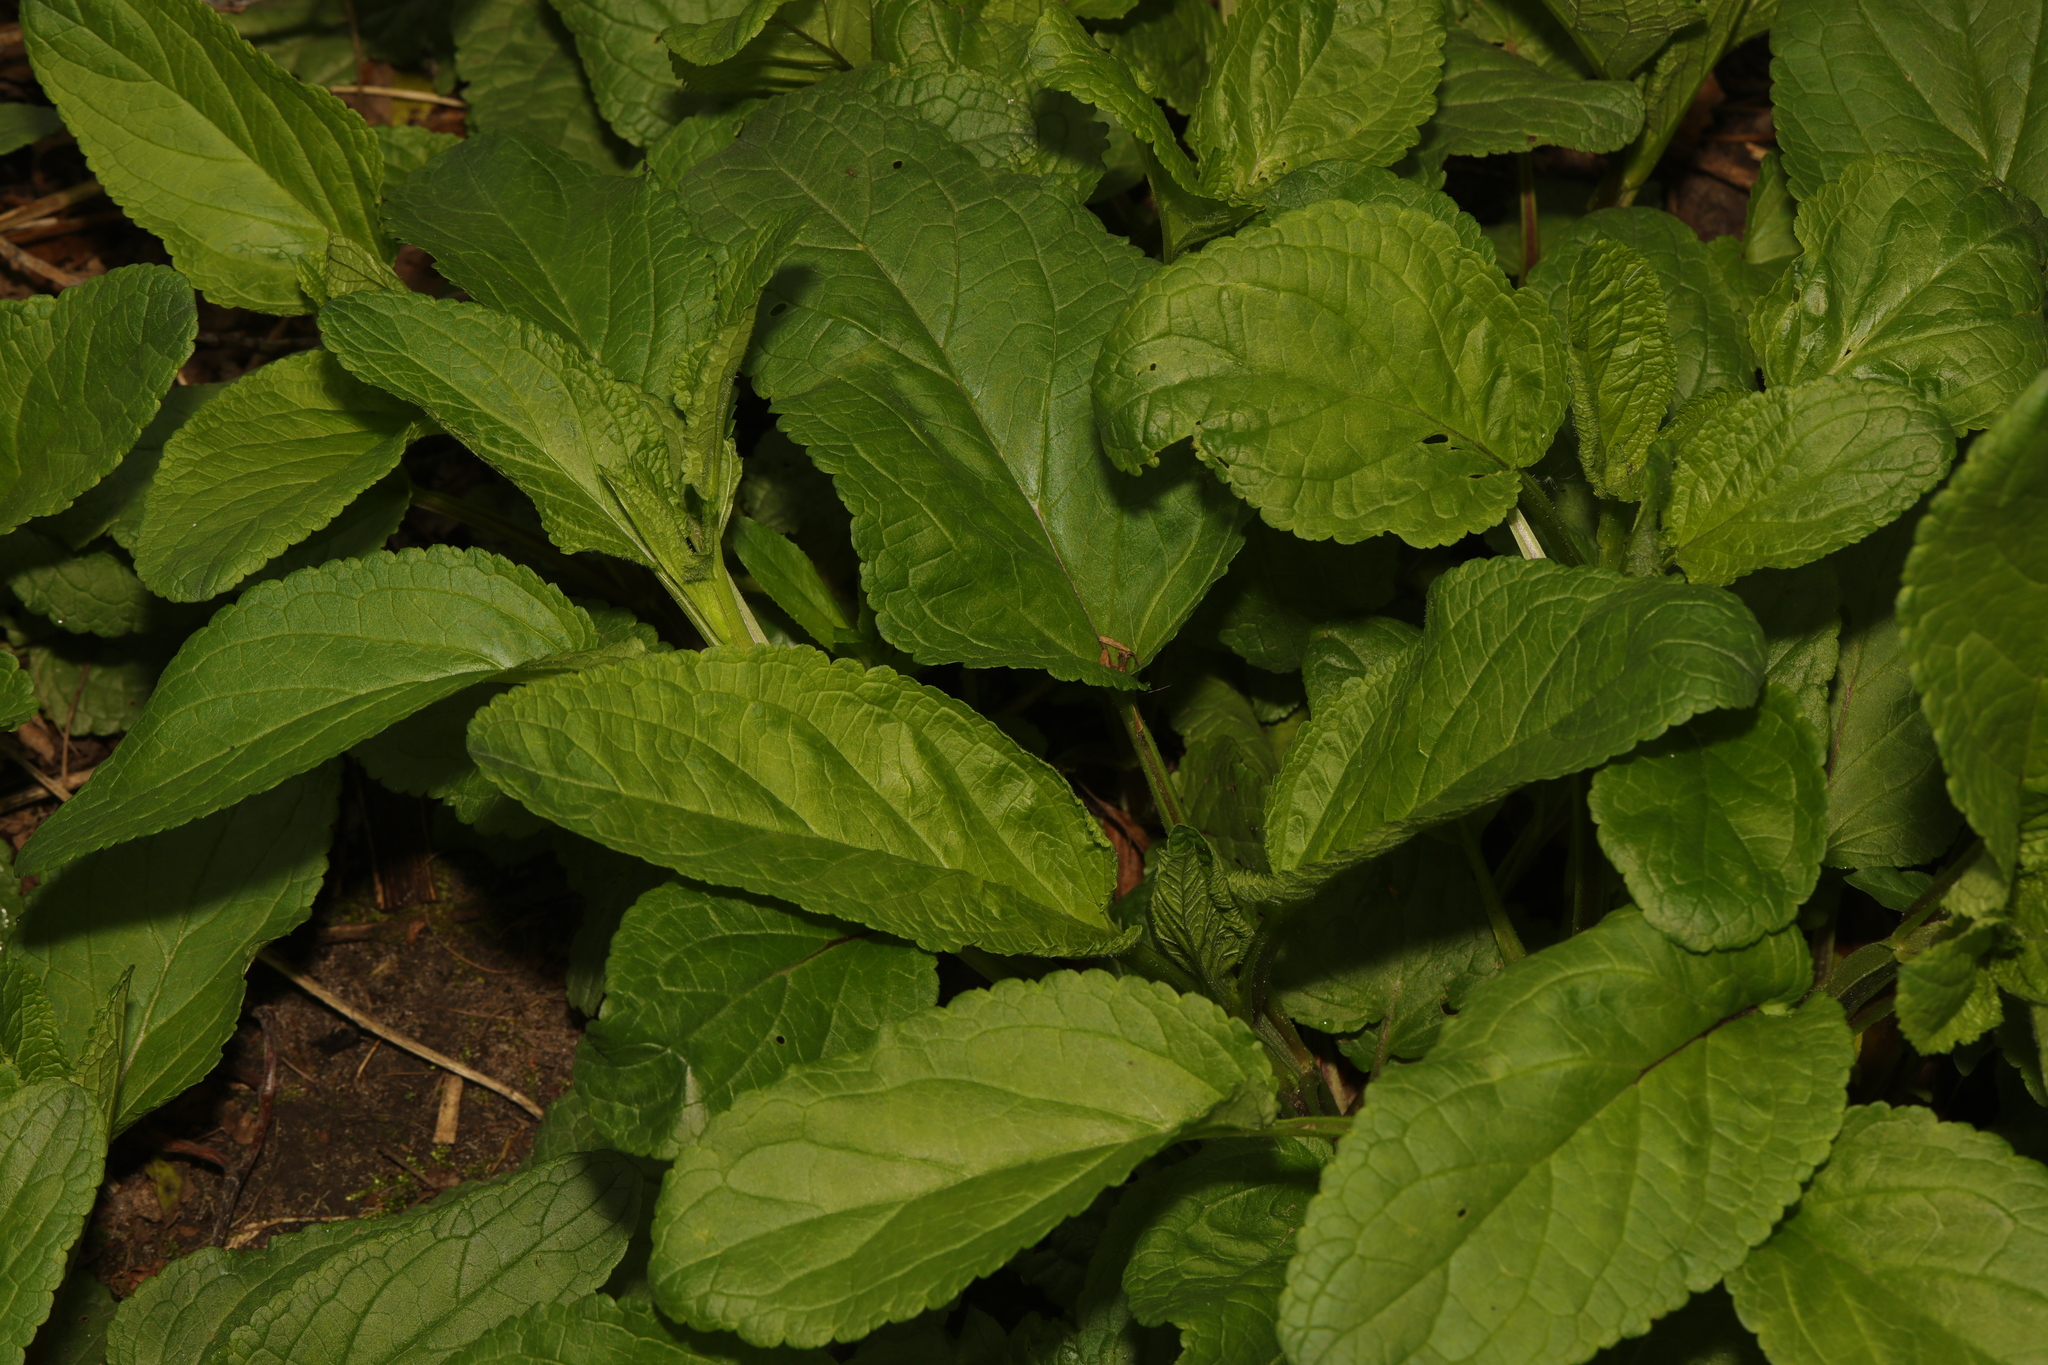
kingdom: Plantae
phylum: Tracheophyta
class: Magnoliopsida
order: Lamiales
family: Scrophulariaceae
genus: Scrophularia
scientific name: Scrophularia auriculata
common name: Water betony
